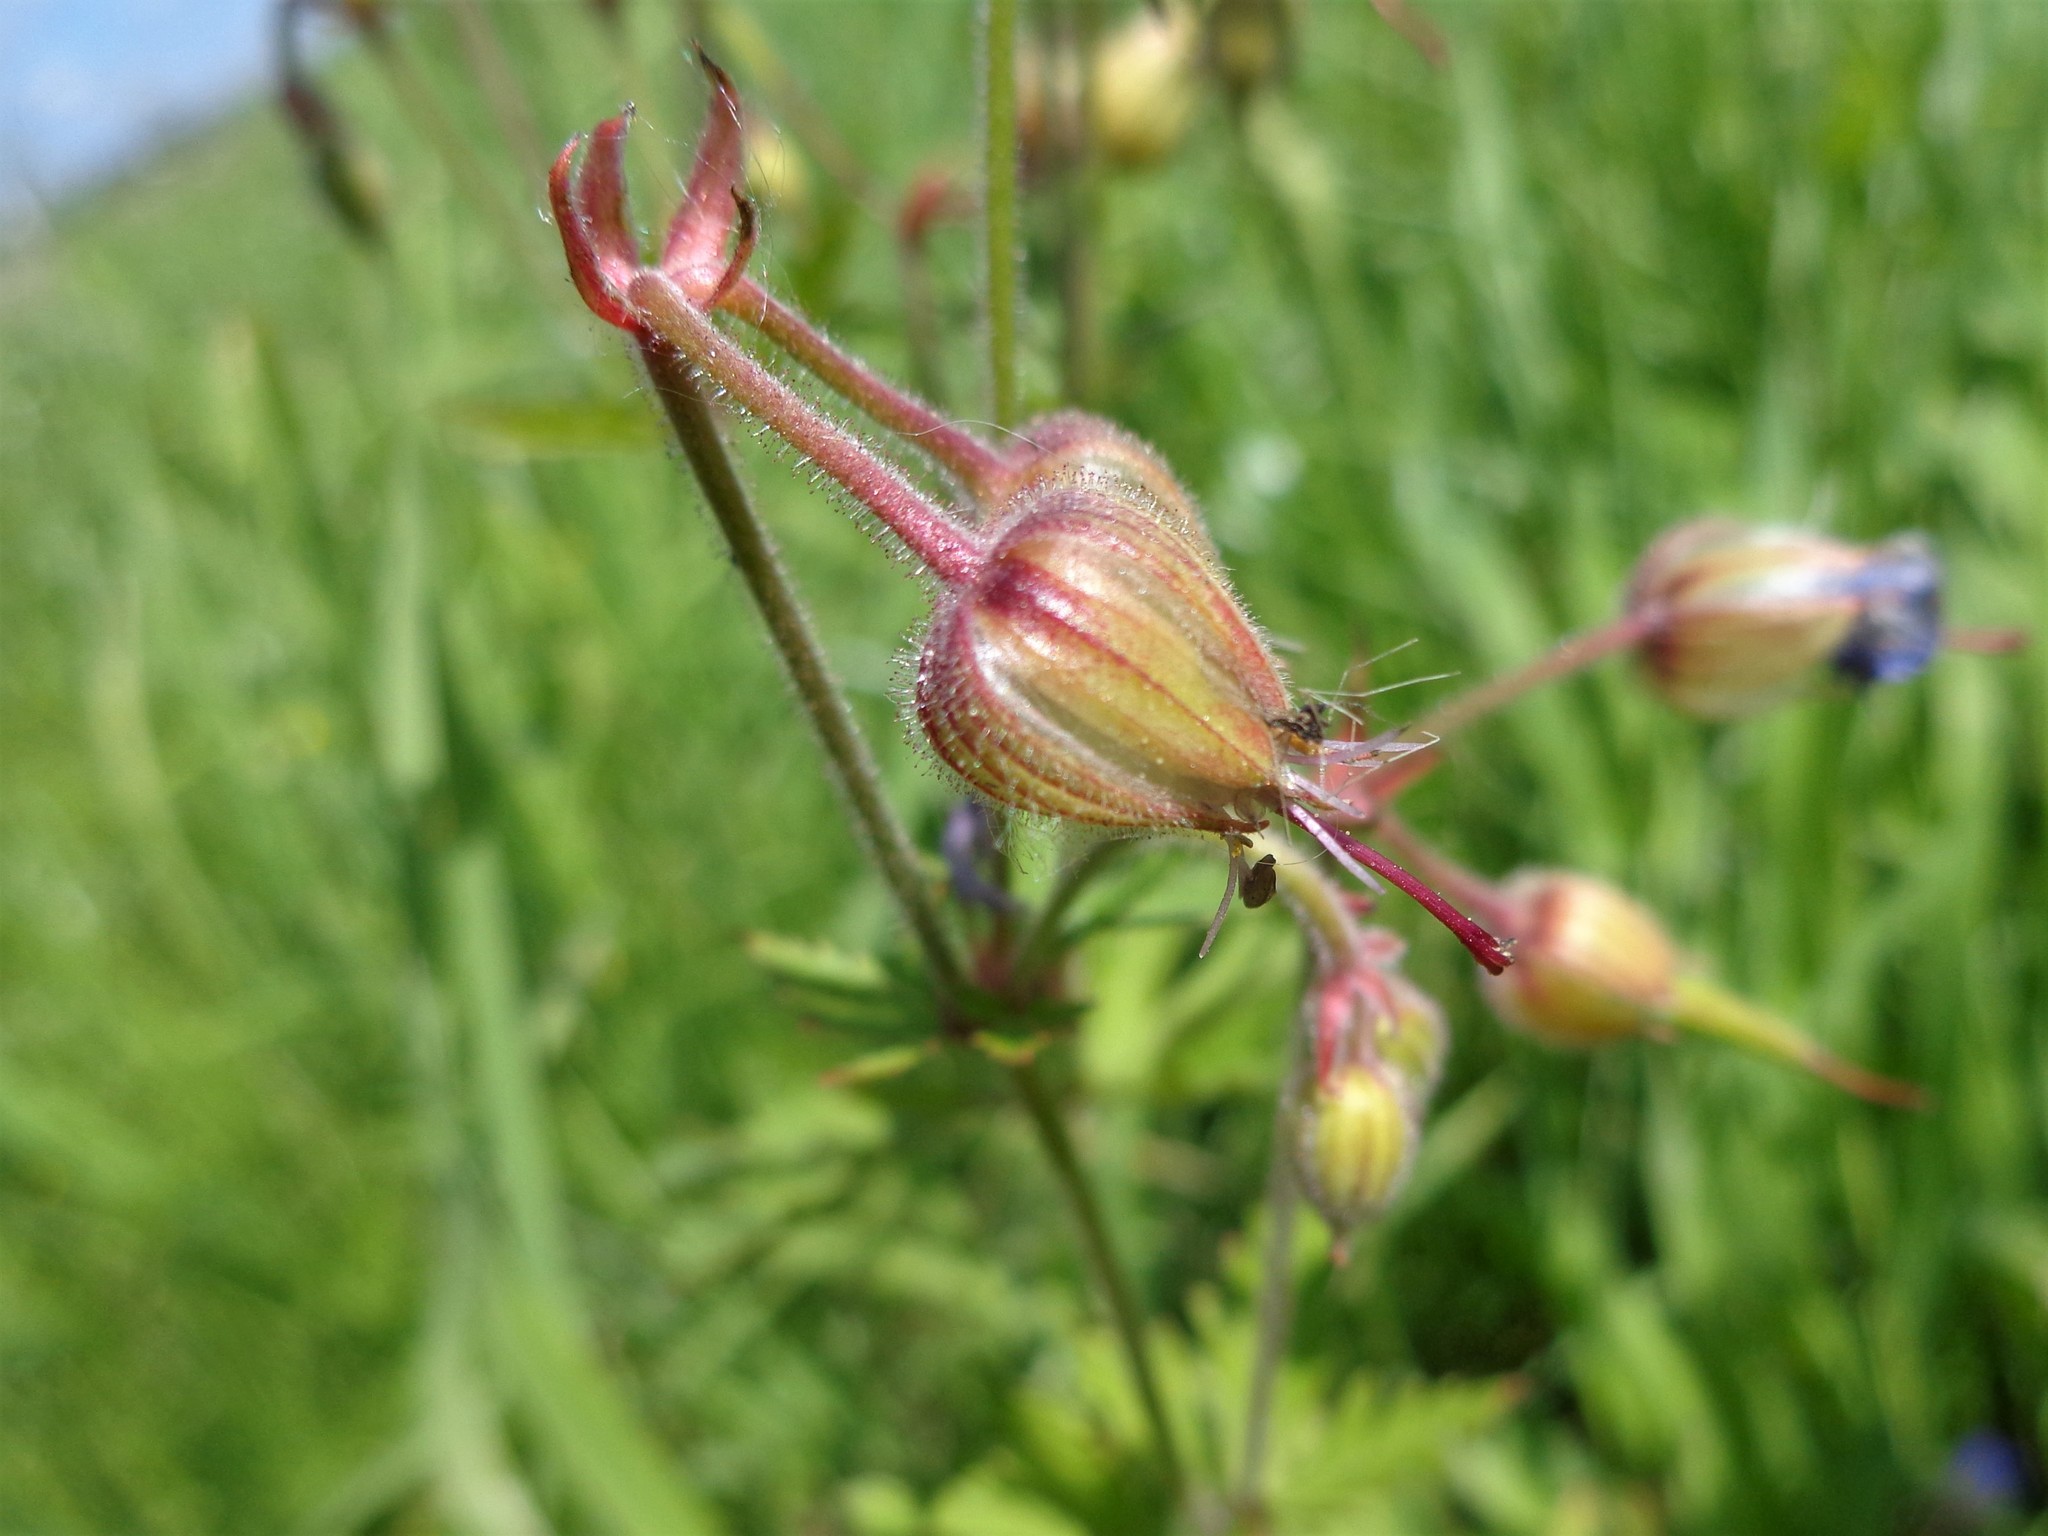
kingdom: Plantae
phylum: Tracheophyta
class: Magnoliopsida
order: Geraniales
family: Geraniaceae
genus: Geranium
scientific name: Geranium pratense
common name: Meadow crane's-bill
